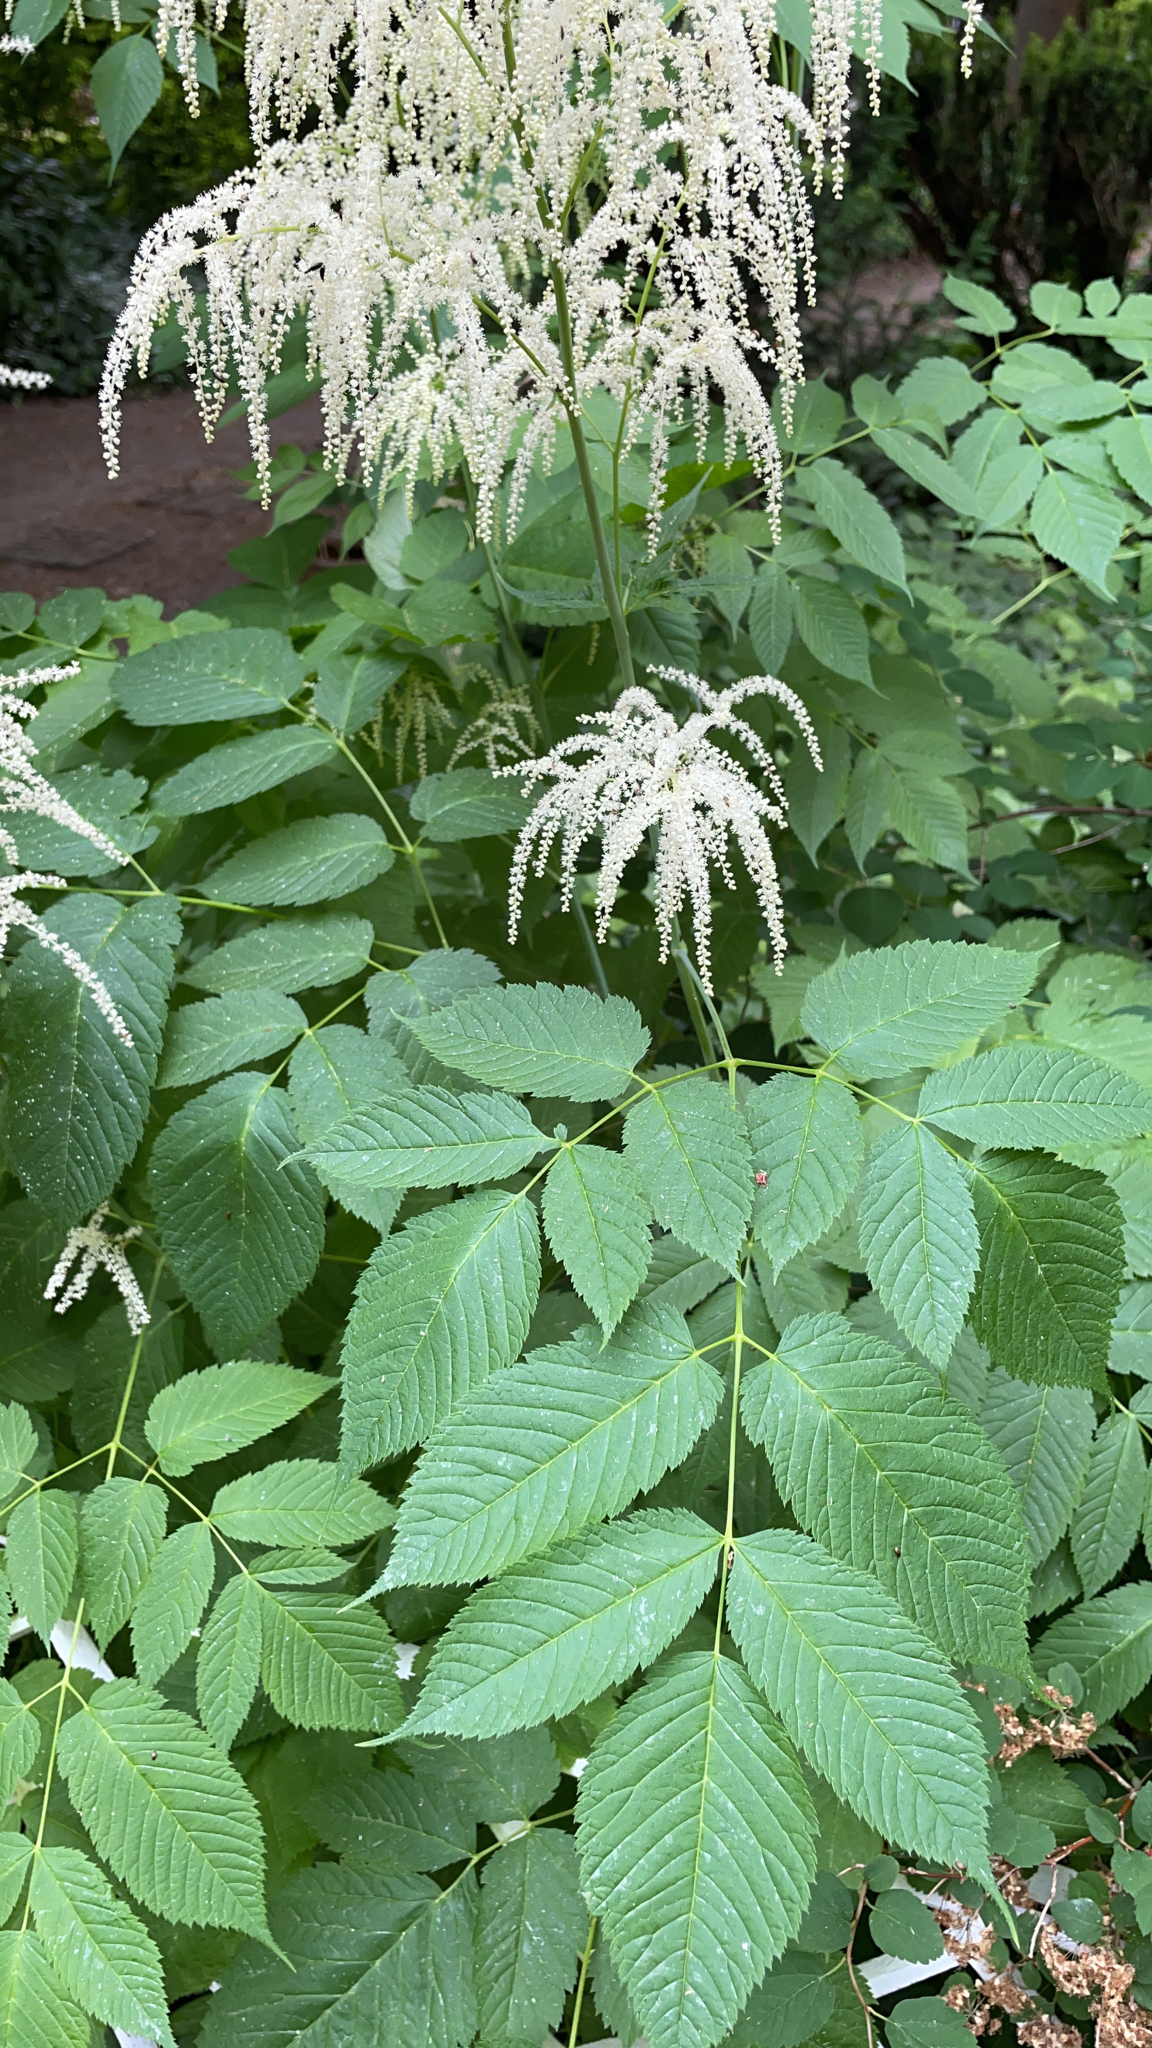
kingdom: Plantae
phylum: Tracheophyta
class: Magnoliopsida
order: Rosales
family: Rosaceae
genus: Aruncus
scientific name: Aruncus dioicus
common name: Buck's-beard
